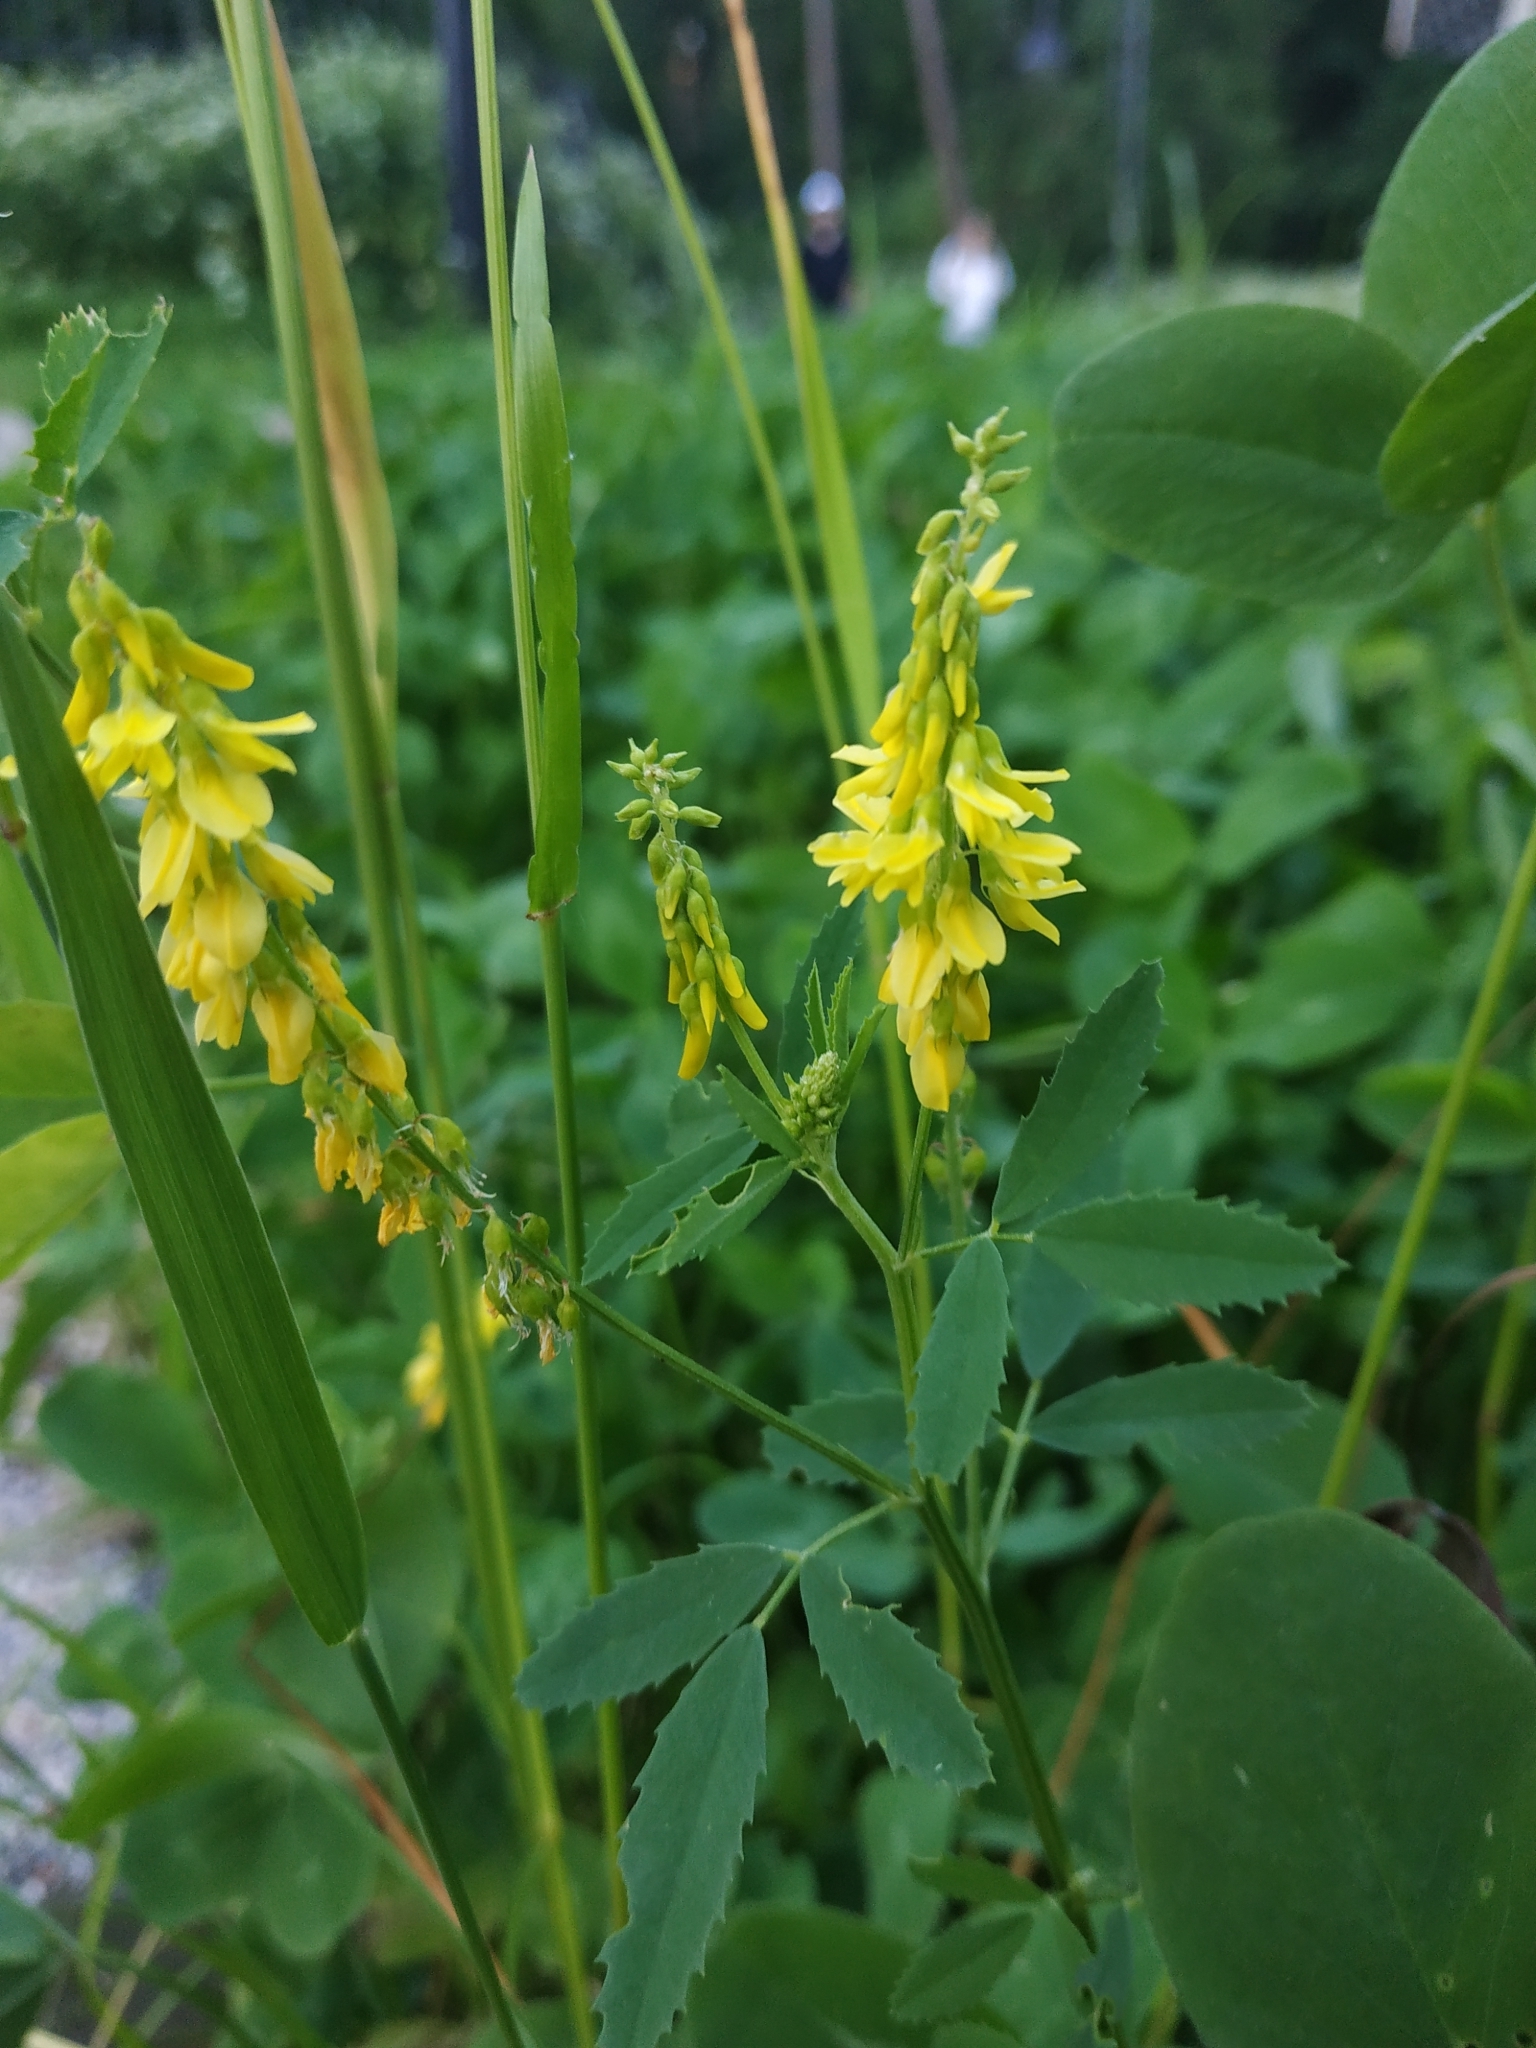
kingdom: Plantae
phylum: Tracheophyta
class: Magnoliopsida
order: Fabales
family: Fabaceae
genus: Melilotus
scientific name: Melilotus officinalis
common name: Sweetclover
